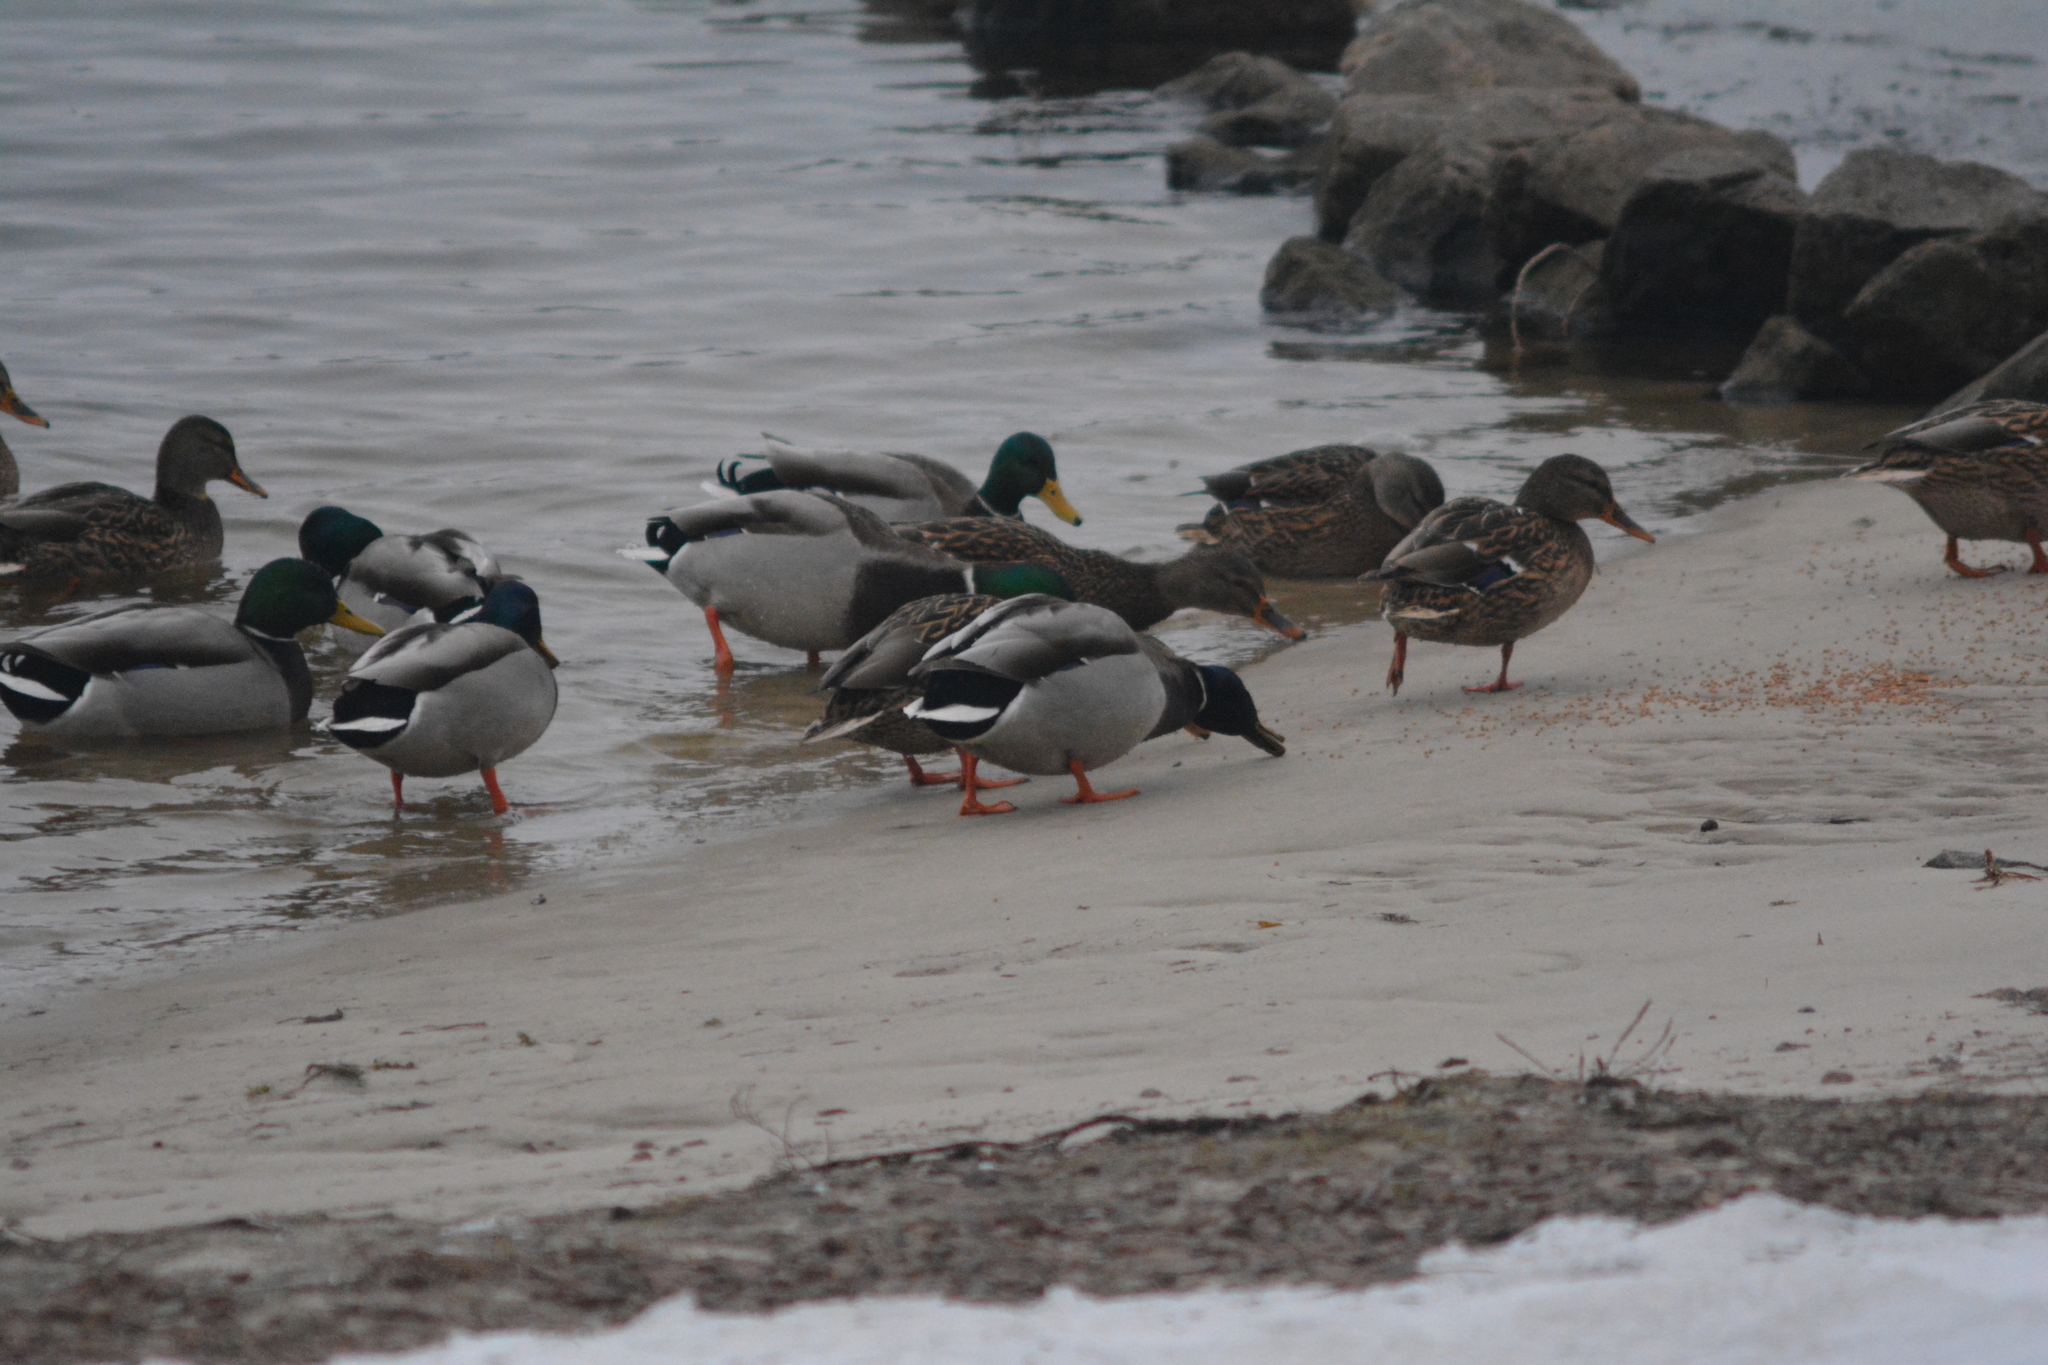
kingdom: Animalia
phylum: Chordata
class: Aves
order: Anseriformes
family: Anatidae
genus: Anas
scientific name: Anas platyrhynchos
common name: Mallard
